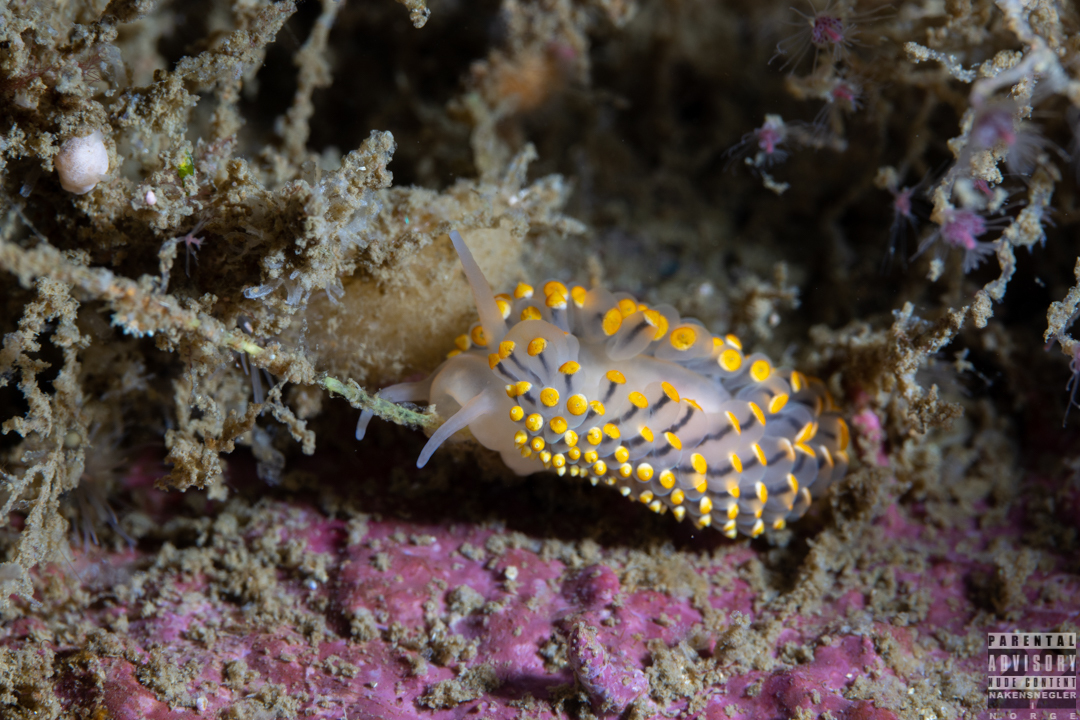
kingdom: Animalia
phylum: Mollusca
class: Gastropoda
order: Nudibranchia
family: Eubranchidae
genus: Eubranchus
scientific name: Eubranchus tricolor
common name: Painted balloon aeolis
